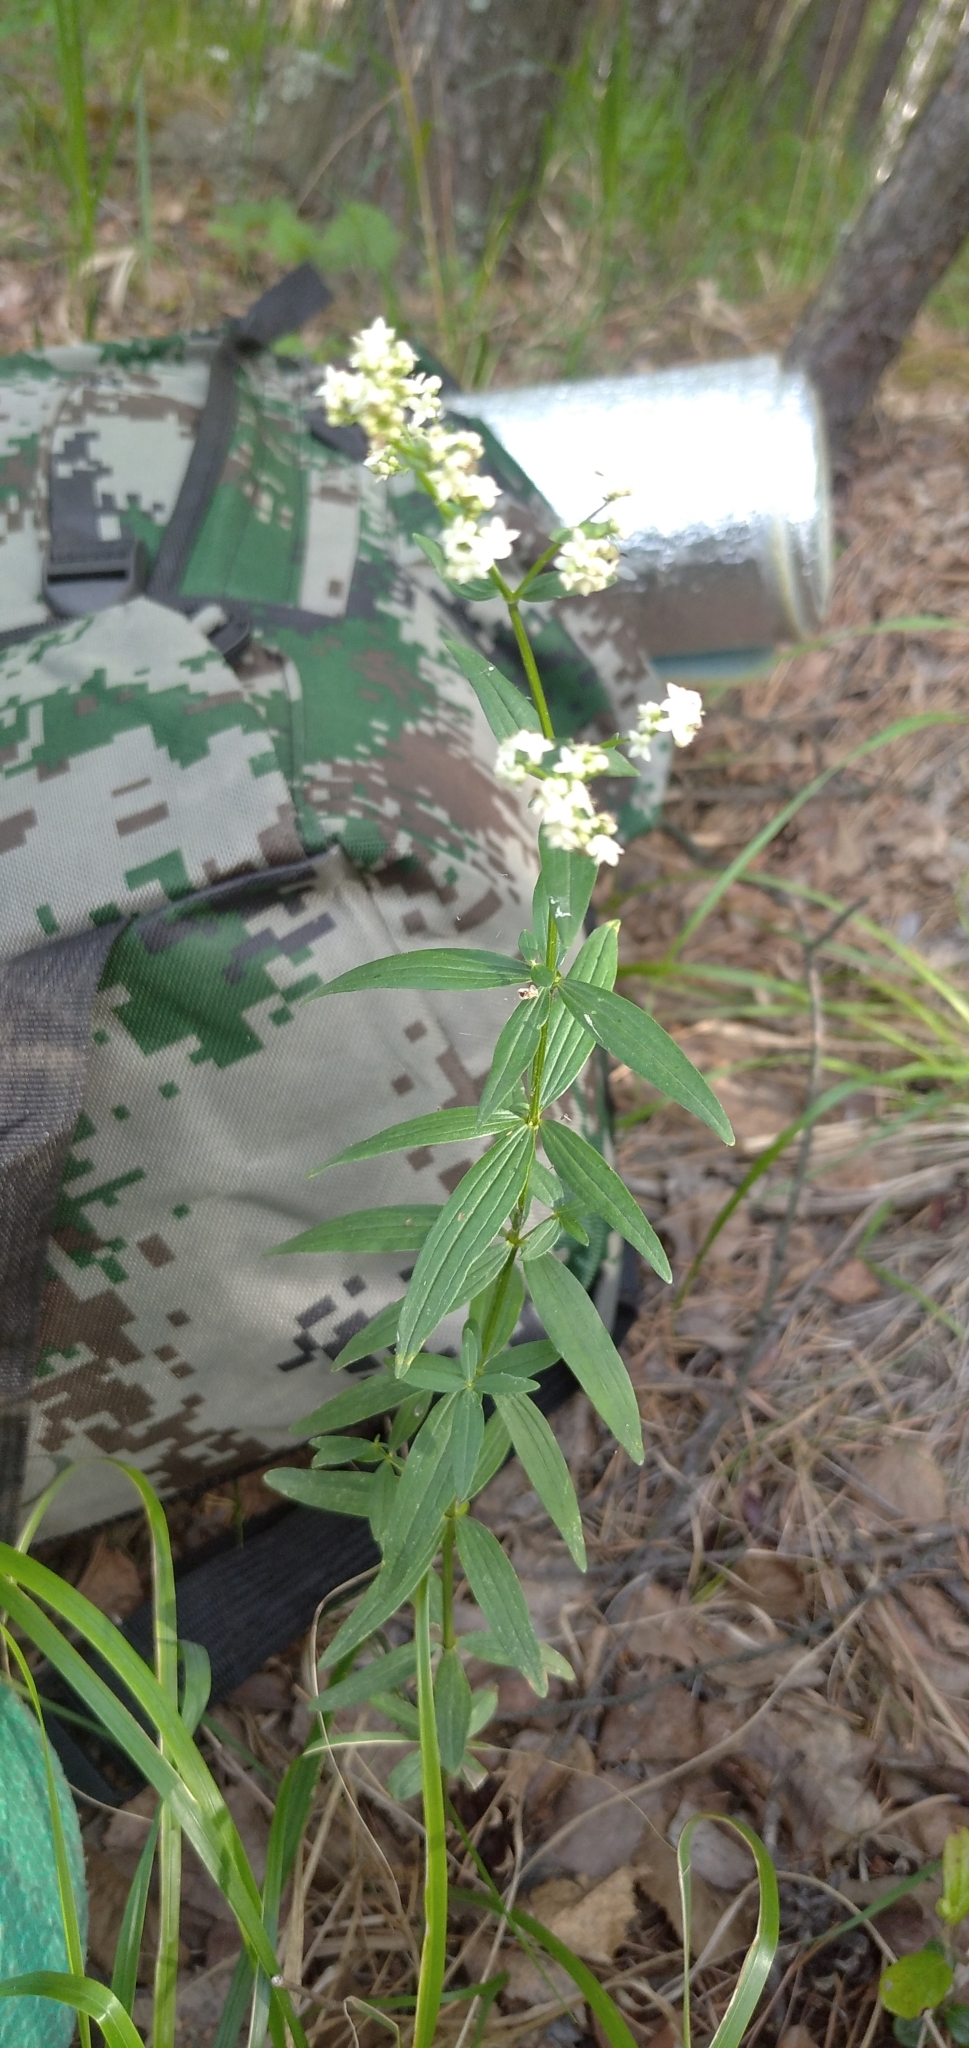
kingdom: Plantae
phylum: Tracheophyta
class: Magnoliopsida
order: Gentianales
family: Rubiaceae
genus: Galium
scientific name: Galium boreale
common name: Northern bedstraw
